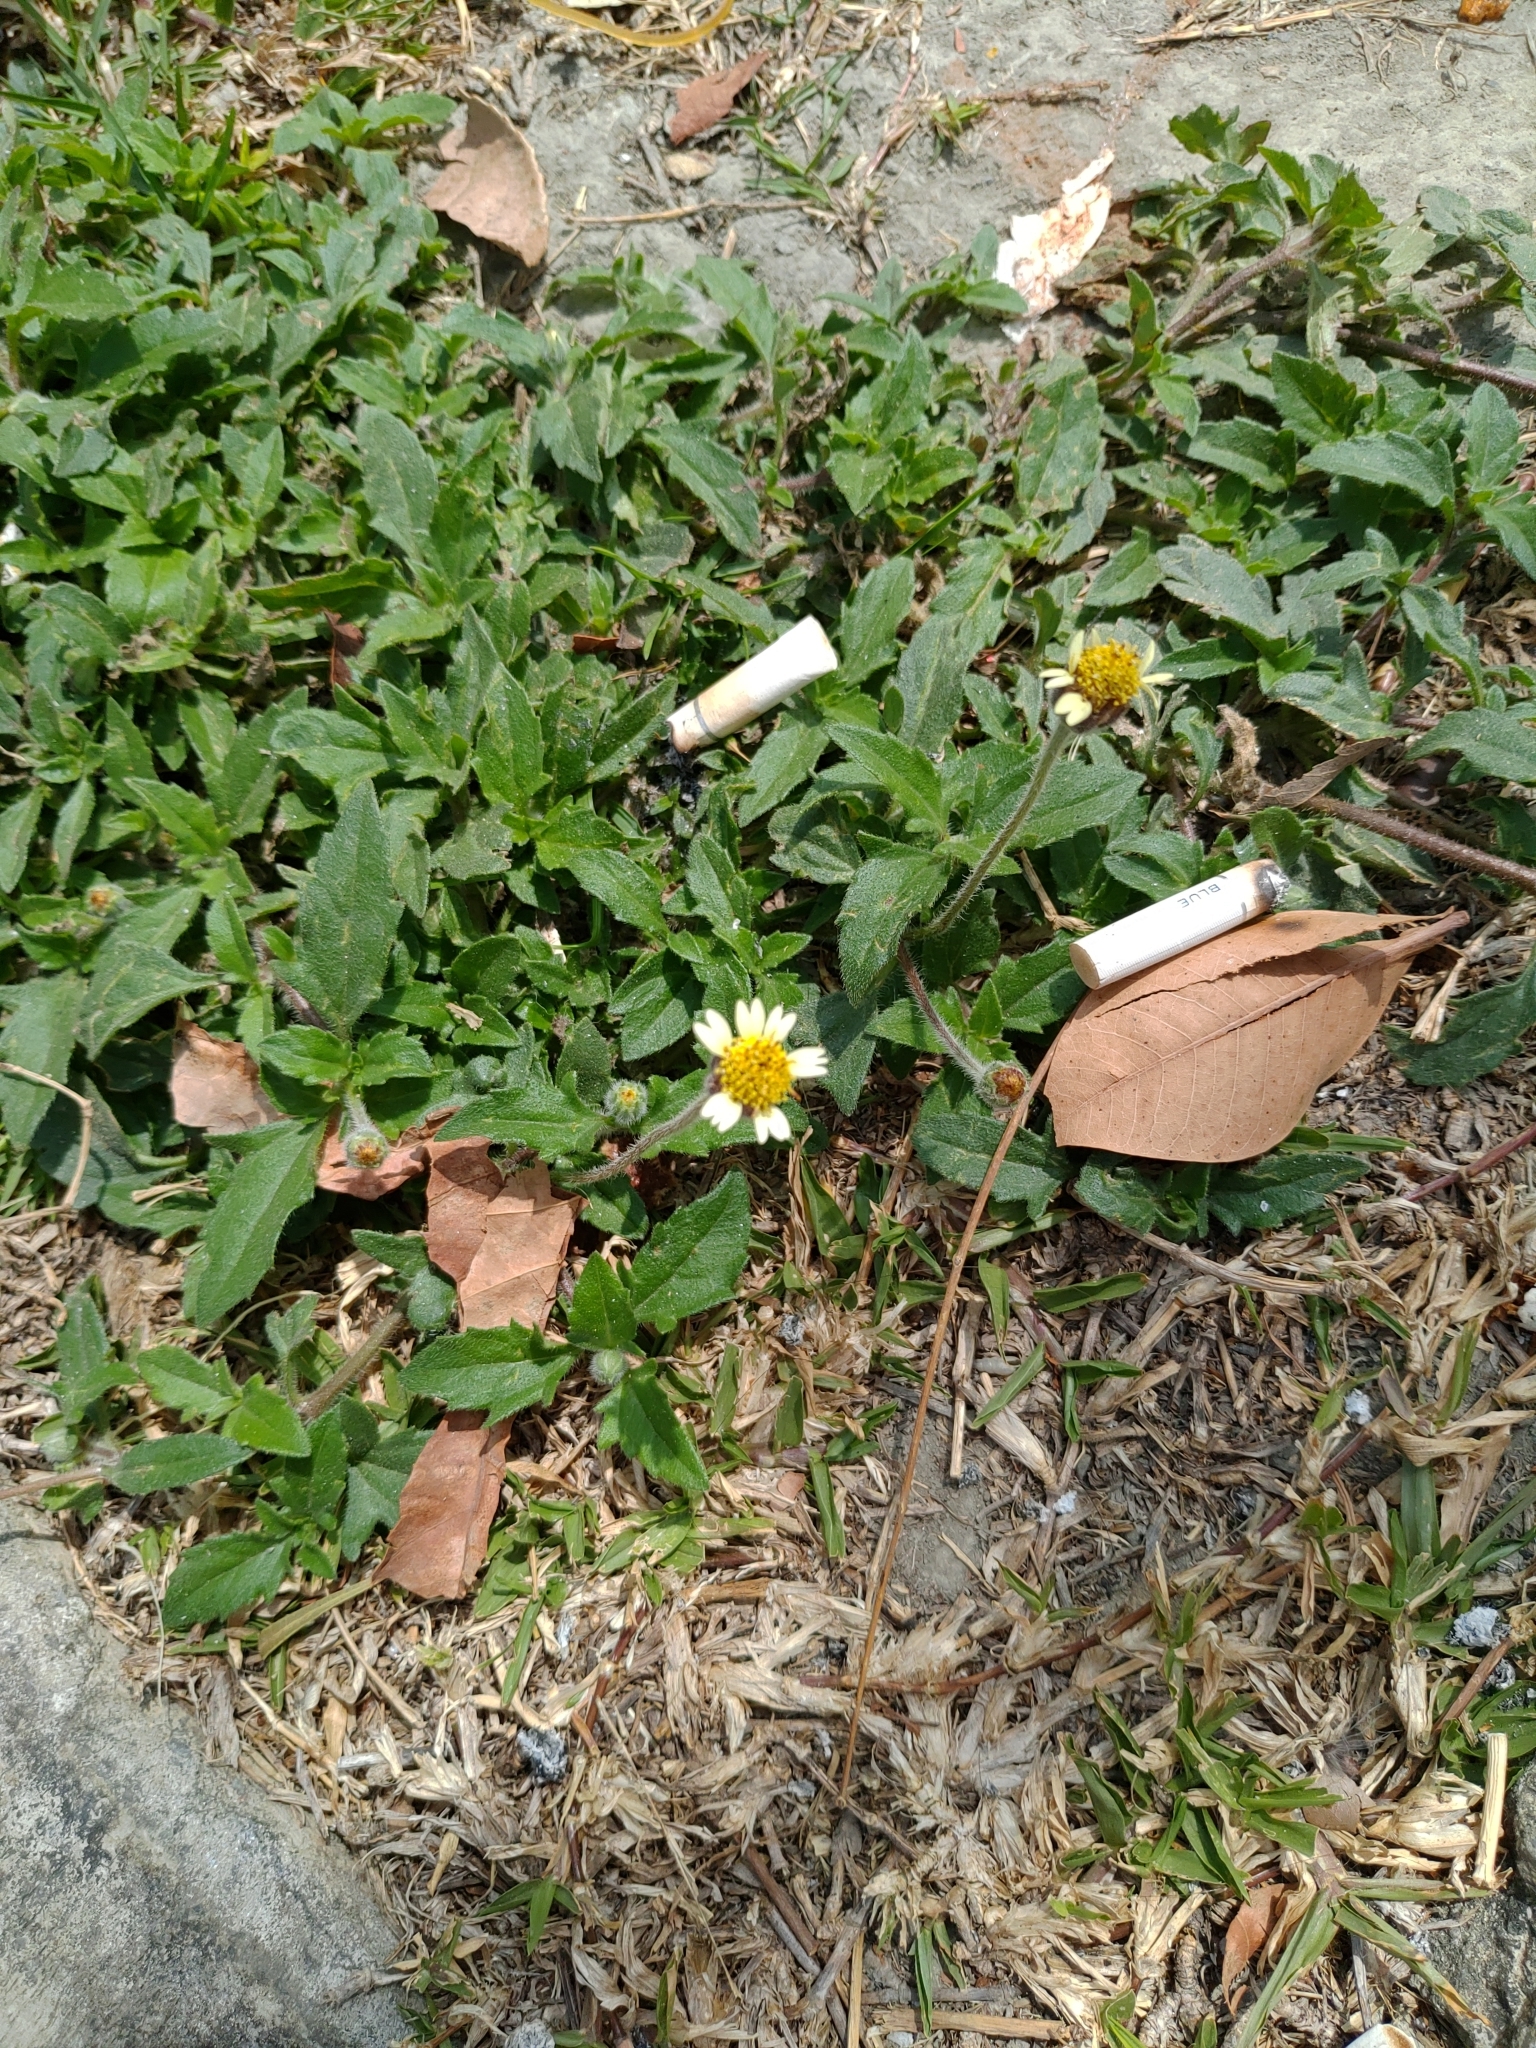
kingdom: Plantae
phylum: Tracheophyta
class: Magnoliopsida
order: Asterales
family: Asteraceae
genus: Tridax
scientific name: Tridax procumbens
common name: Coatbuttons
